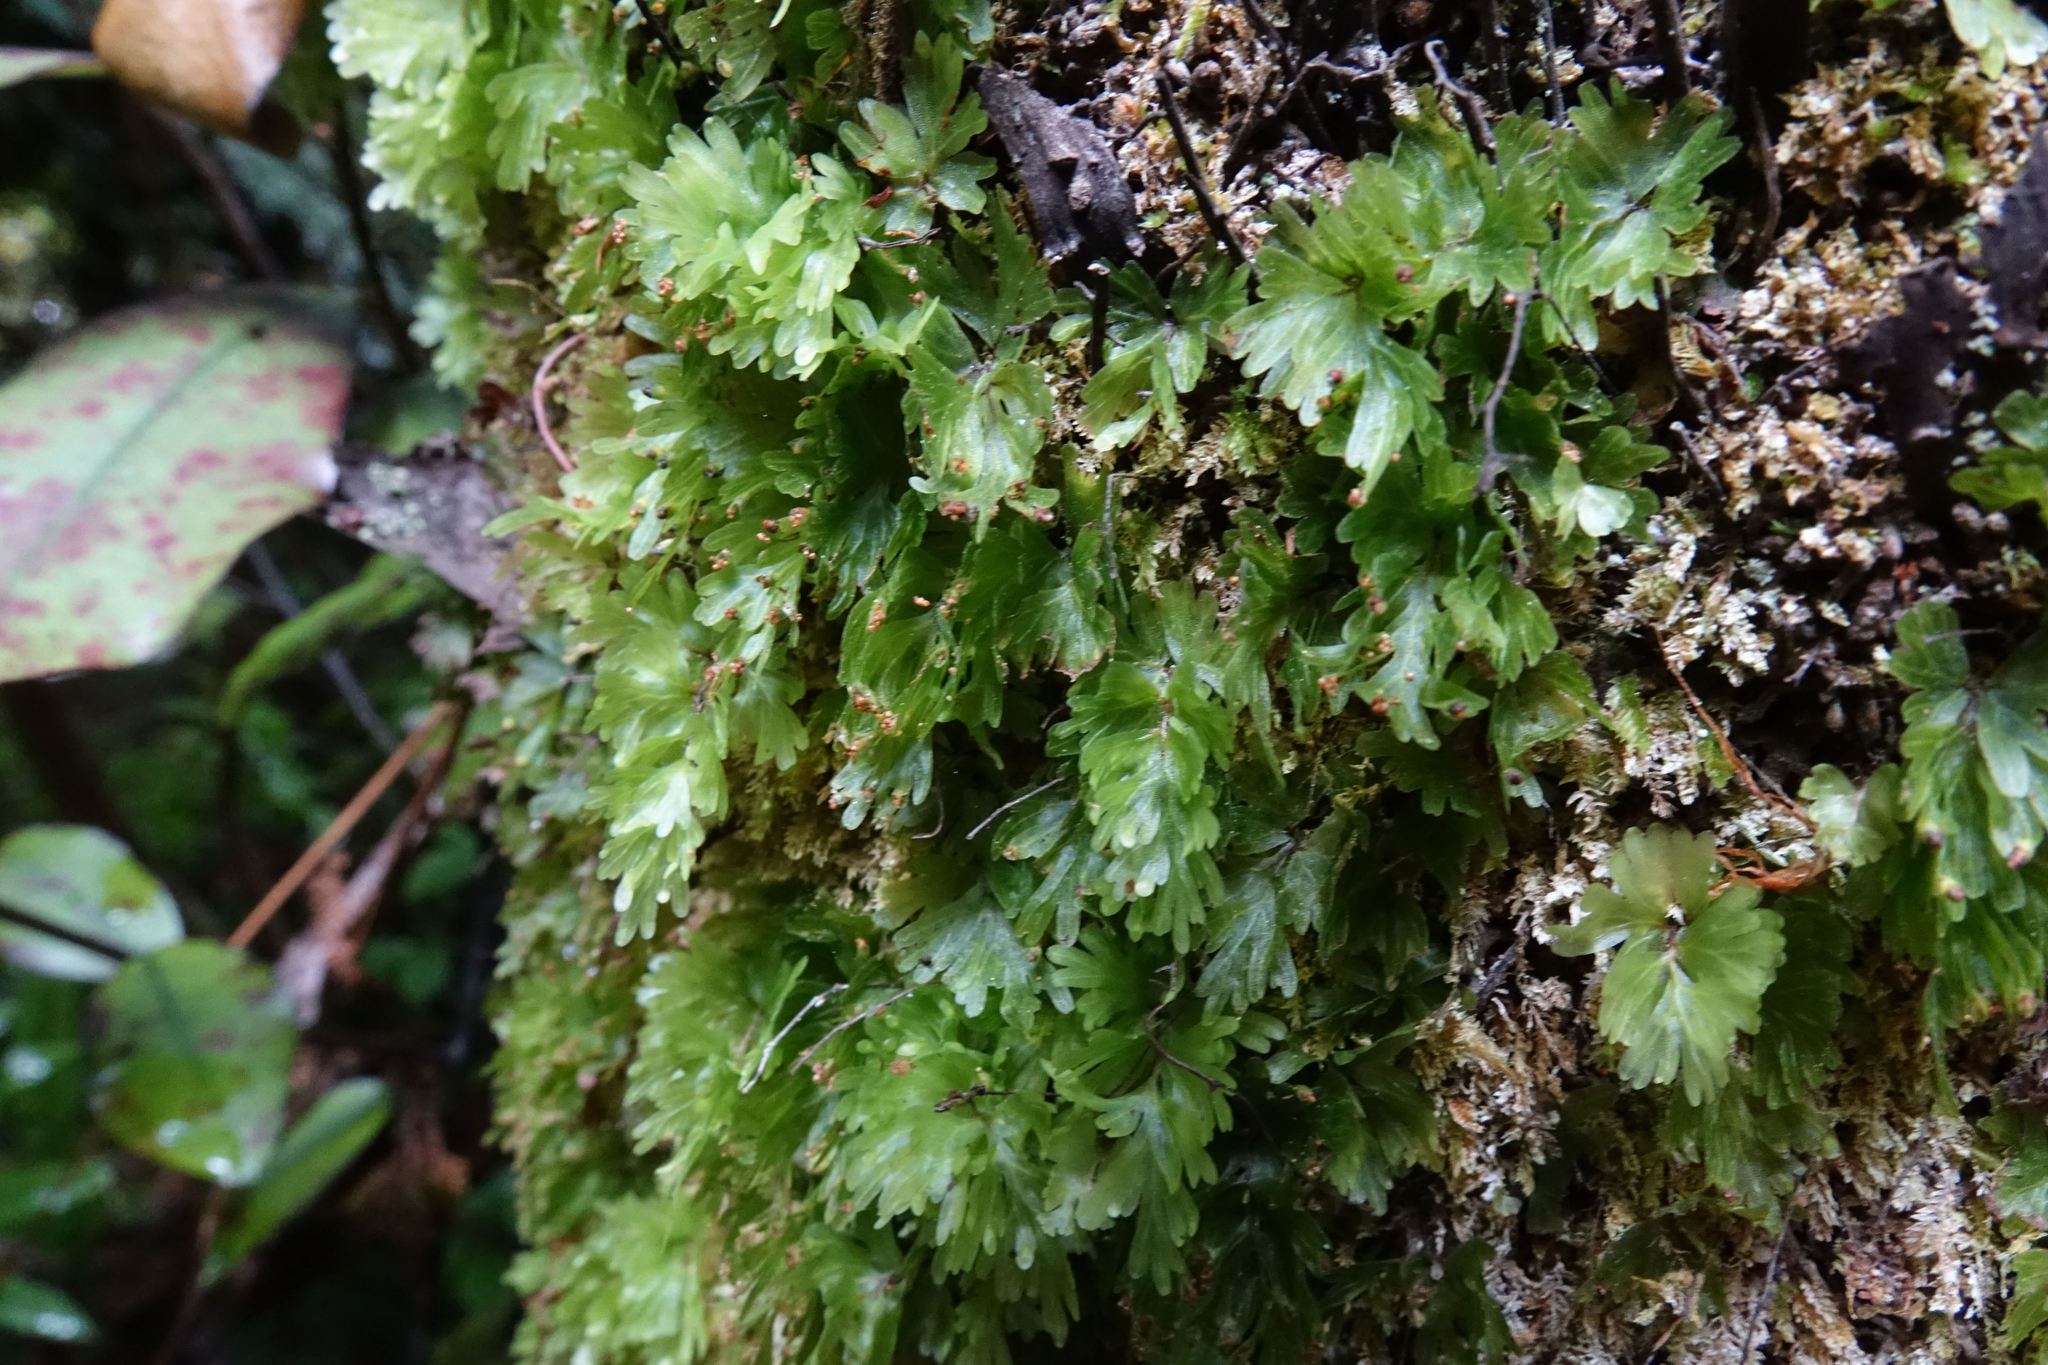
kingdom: Plantae
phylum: Tracheophyta
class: Polypodiopsida
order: Hymenophyllales
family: Hymenophyllaceae
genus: Hymenophyllum
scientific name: Hymenophyllum flabellatum
